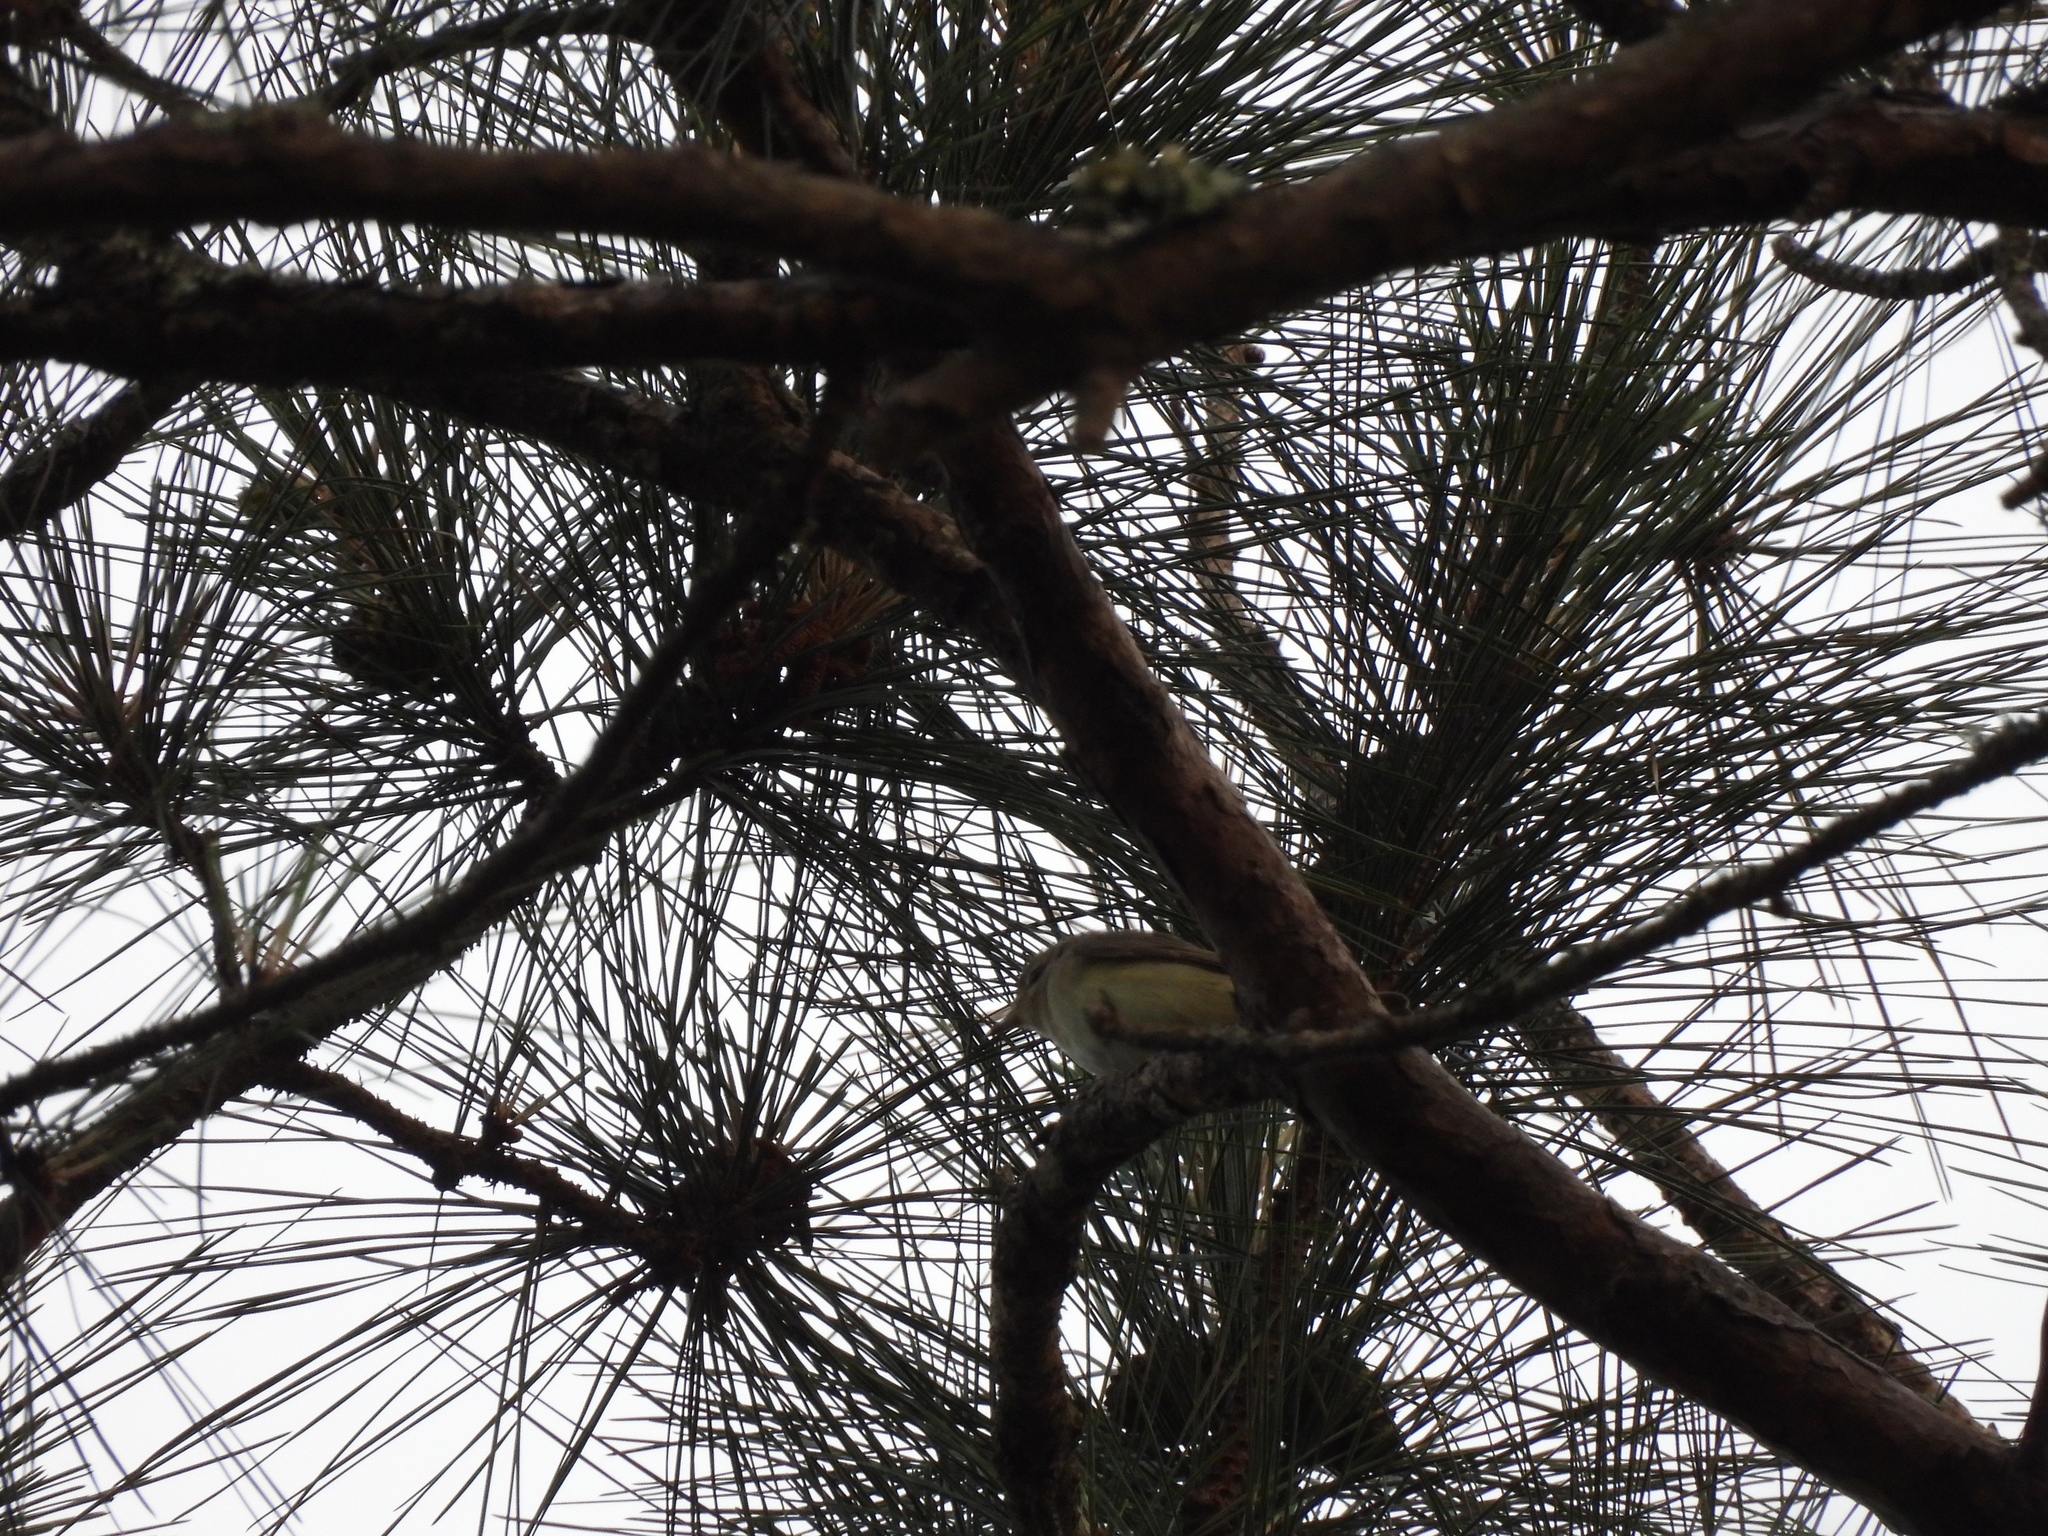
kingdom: Animalia
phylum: Chordata
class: Aves
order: Passeriformes
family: Vireonidae
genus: Vireo
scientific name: Vireo gilvus
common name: Warbling vireo
